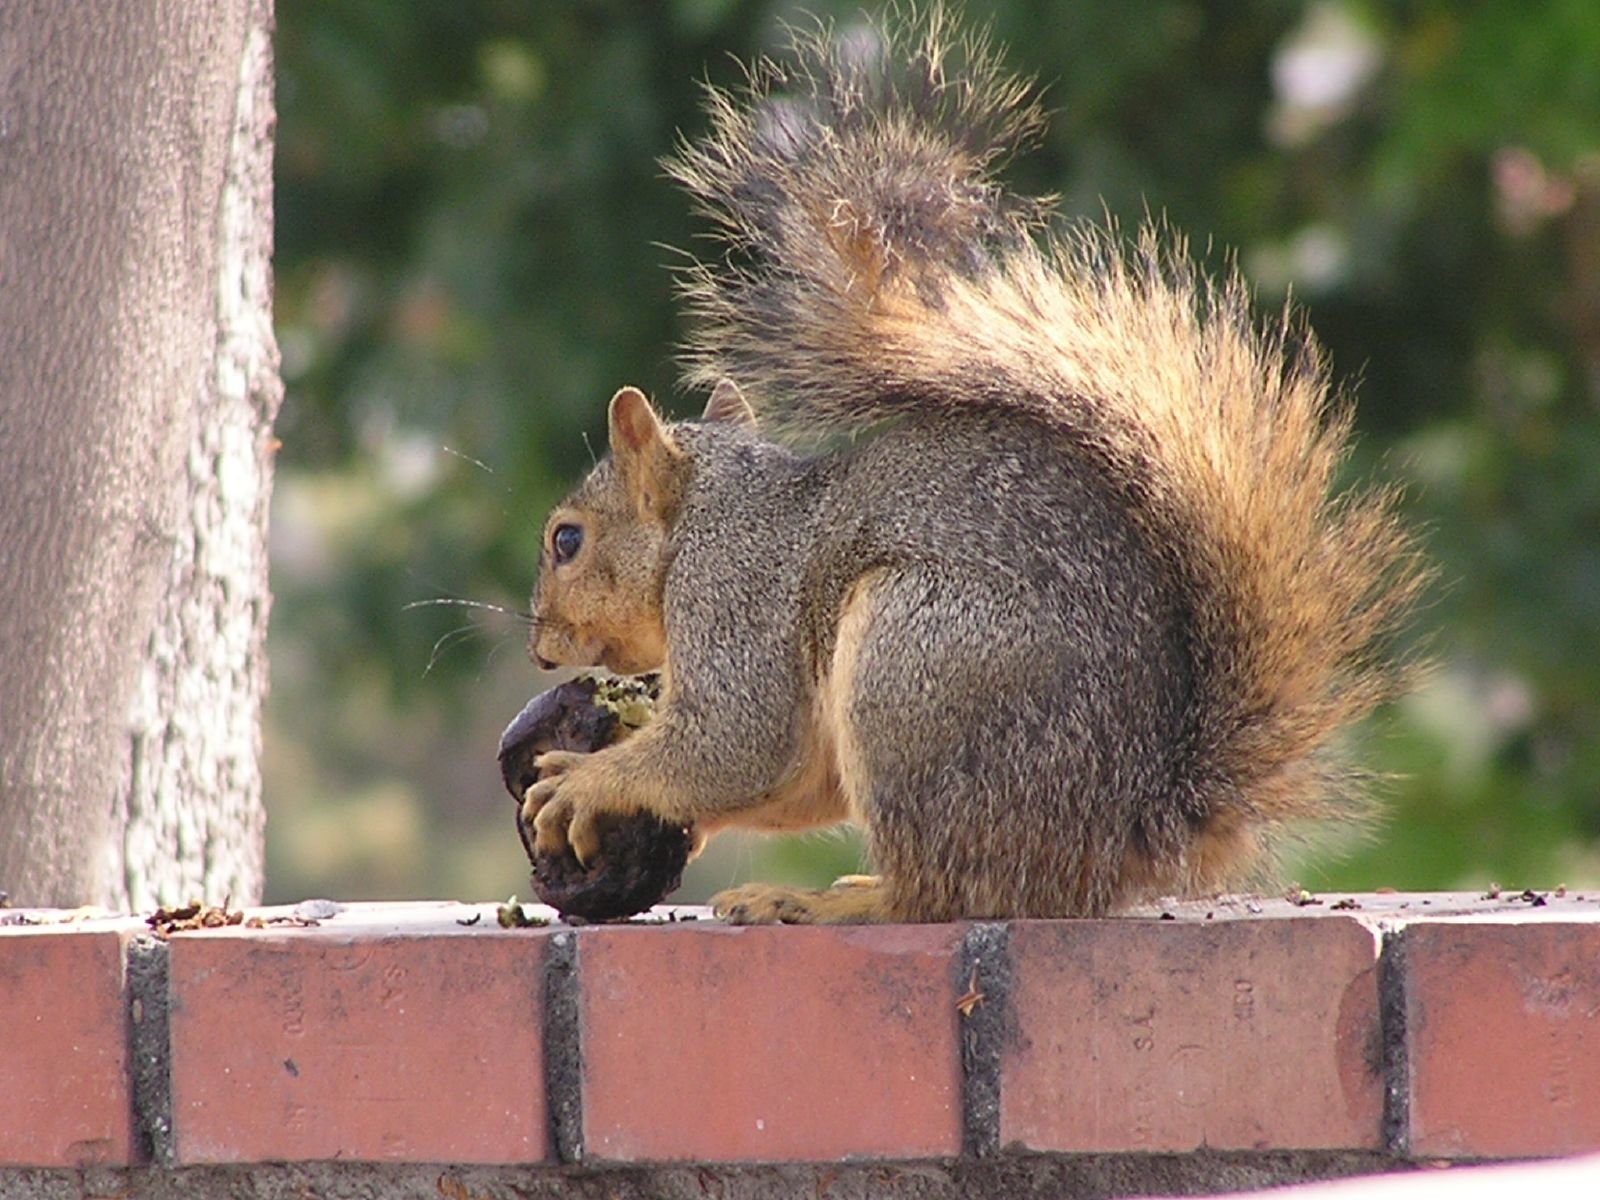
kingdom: Animalia
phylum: Chordata
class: Mammalia
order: Rodentia
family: Sciuridae
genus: Sciurus
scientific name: Sciurus niger
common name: Fox squirrel
